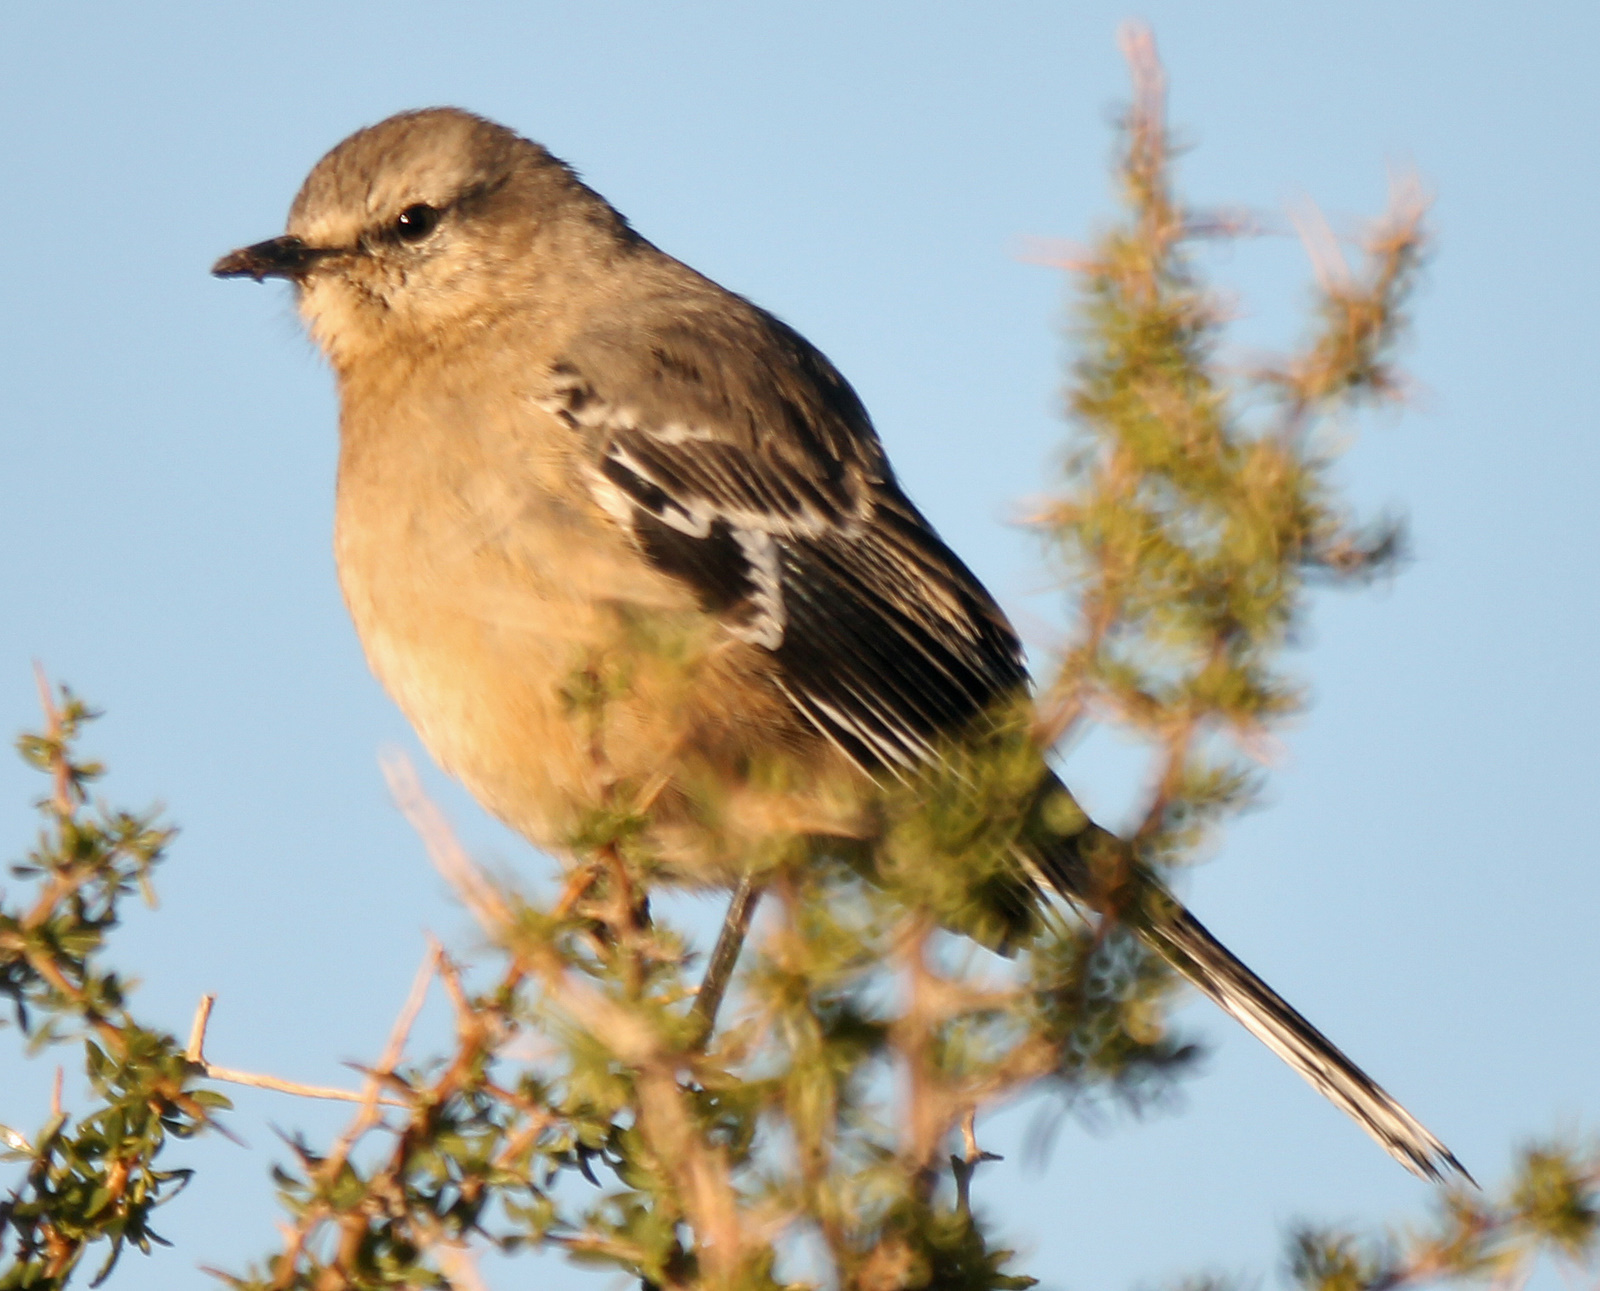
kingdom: Animalia
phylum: Chordata
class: Aves
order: Passeriformes
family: Mimidae
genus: Mimus
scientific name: Mimus patagonicus
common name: Patagonian mockingbird
